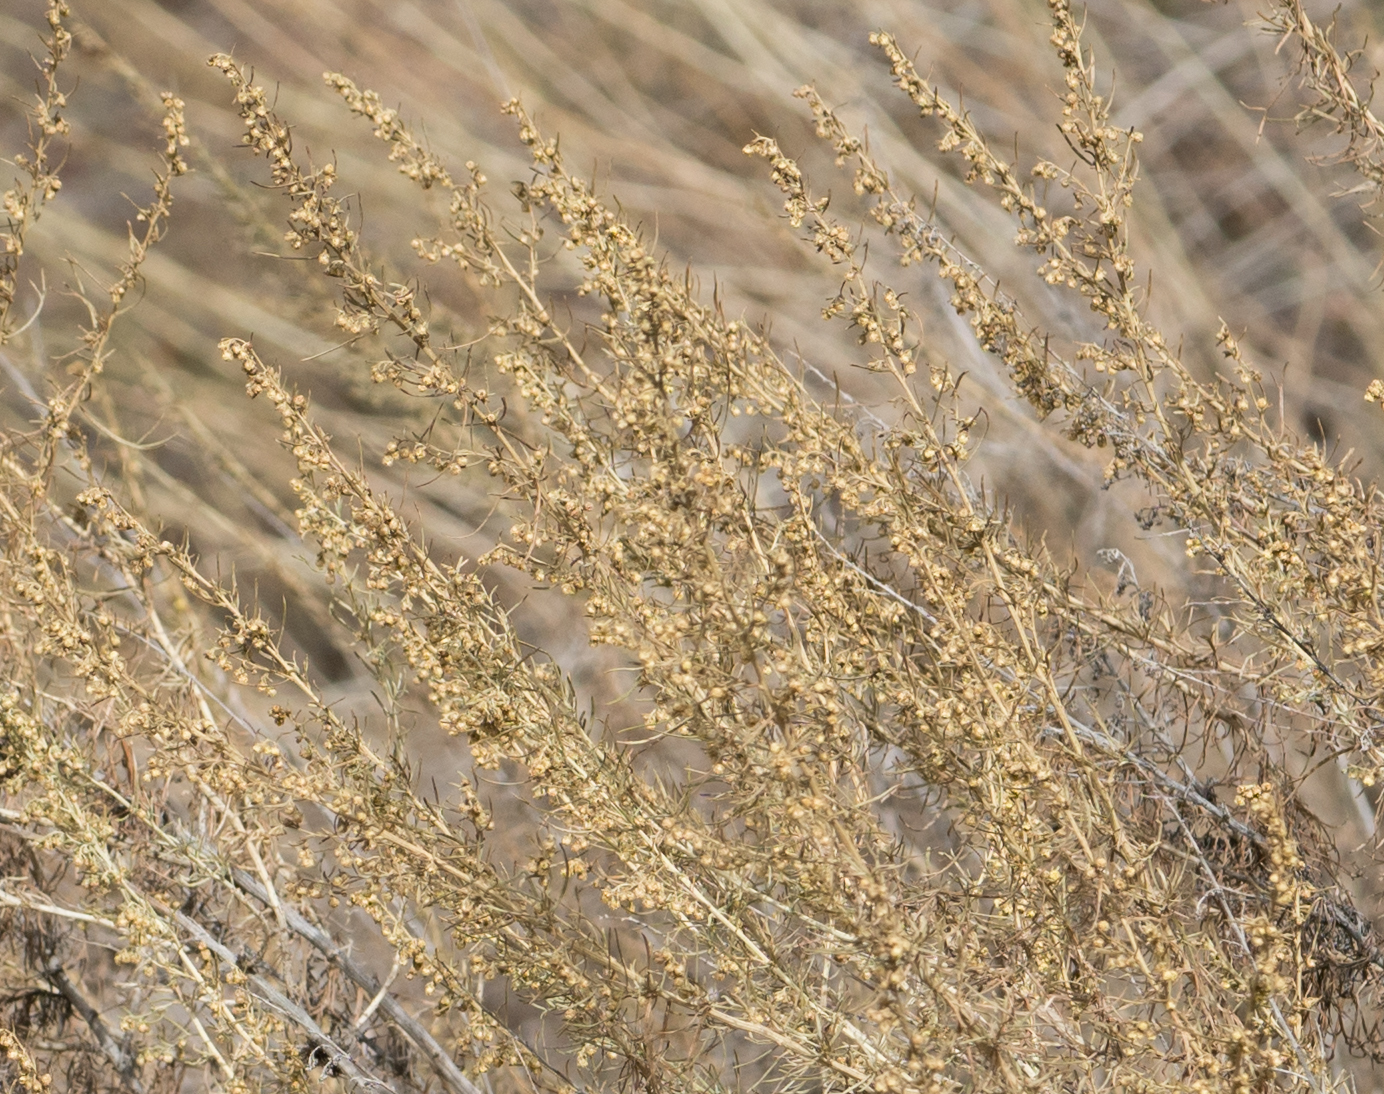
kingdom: Plantae
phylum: Tracheophyta
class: Magnoliopsida
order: Asterales
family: Asteraceae
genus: Artemisia
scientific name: Artemisia californica
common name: California sagebrush
